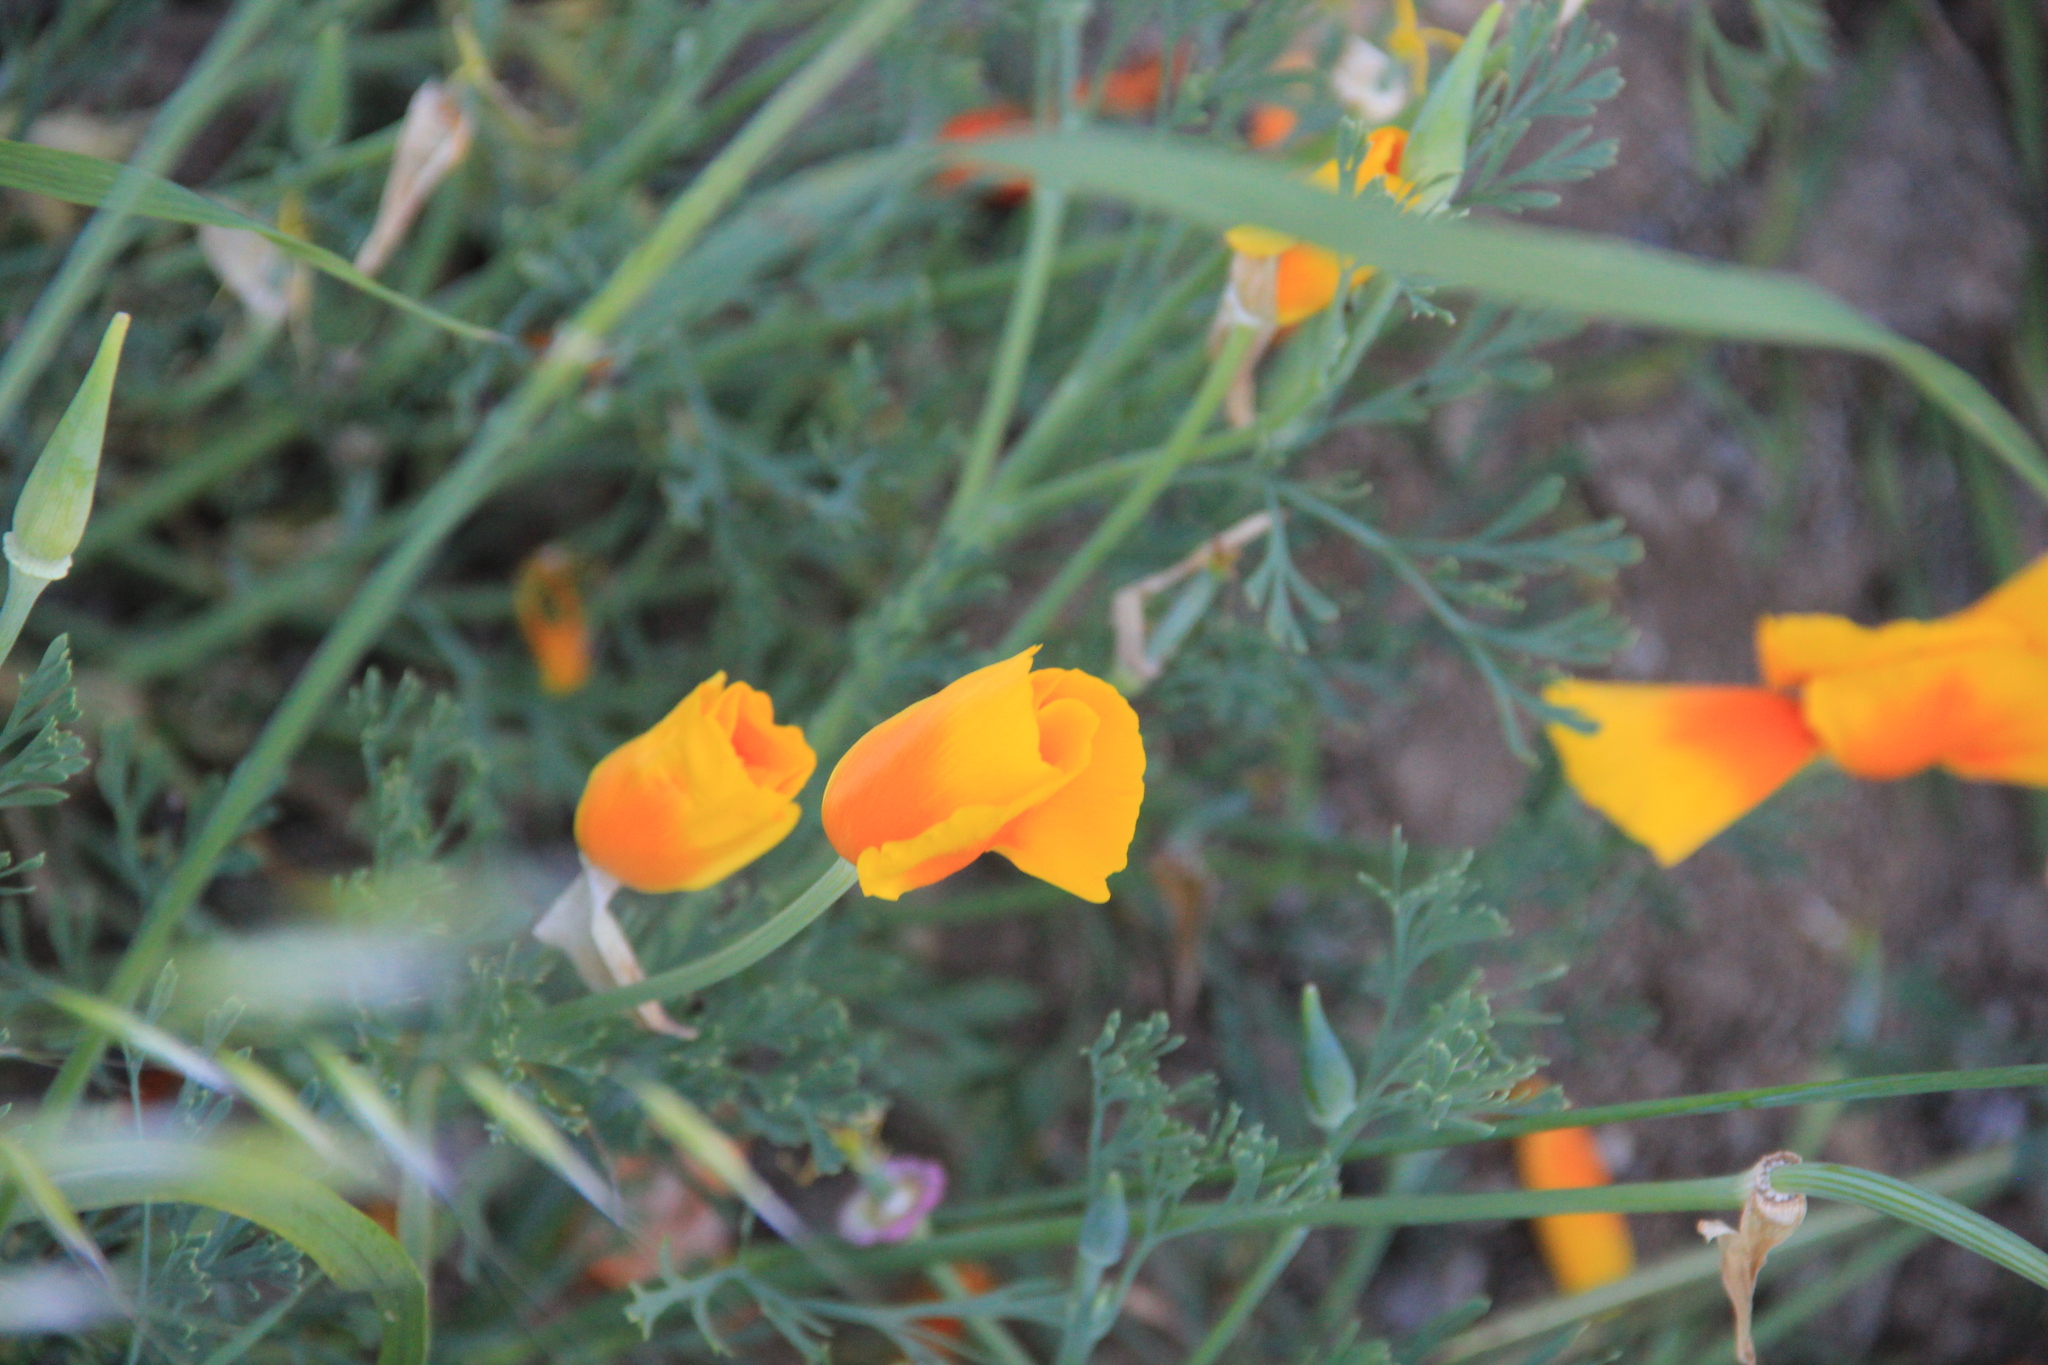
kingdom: Plantae
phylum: Tracheophyta
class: Magnoliopsida
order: Ranunculales
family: Papaveraceae
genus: Eschscholzia
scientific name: Eschscholzia californica
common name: California poppy
